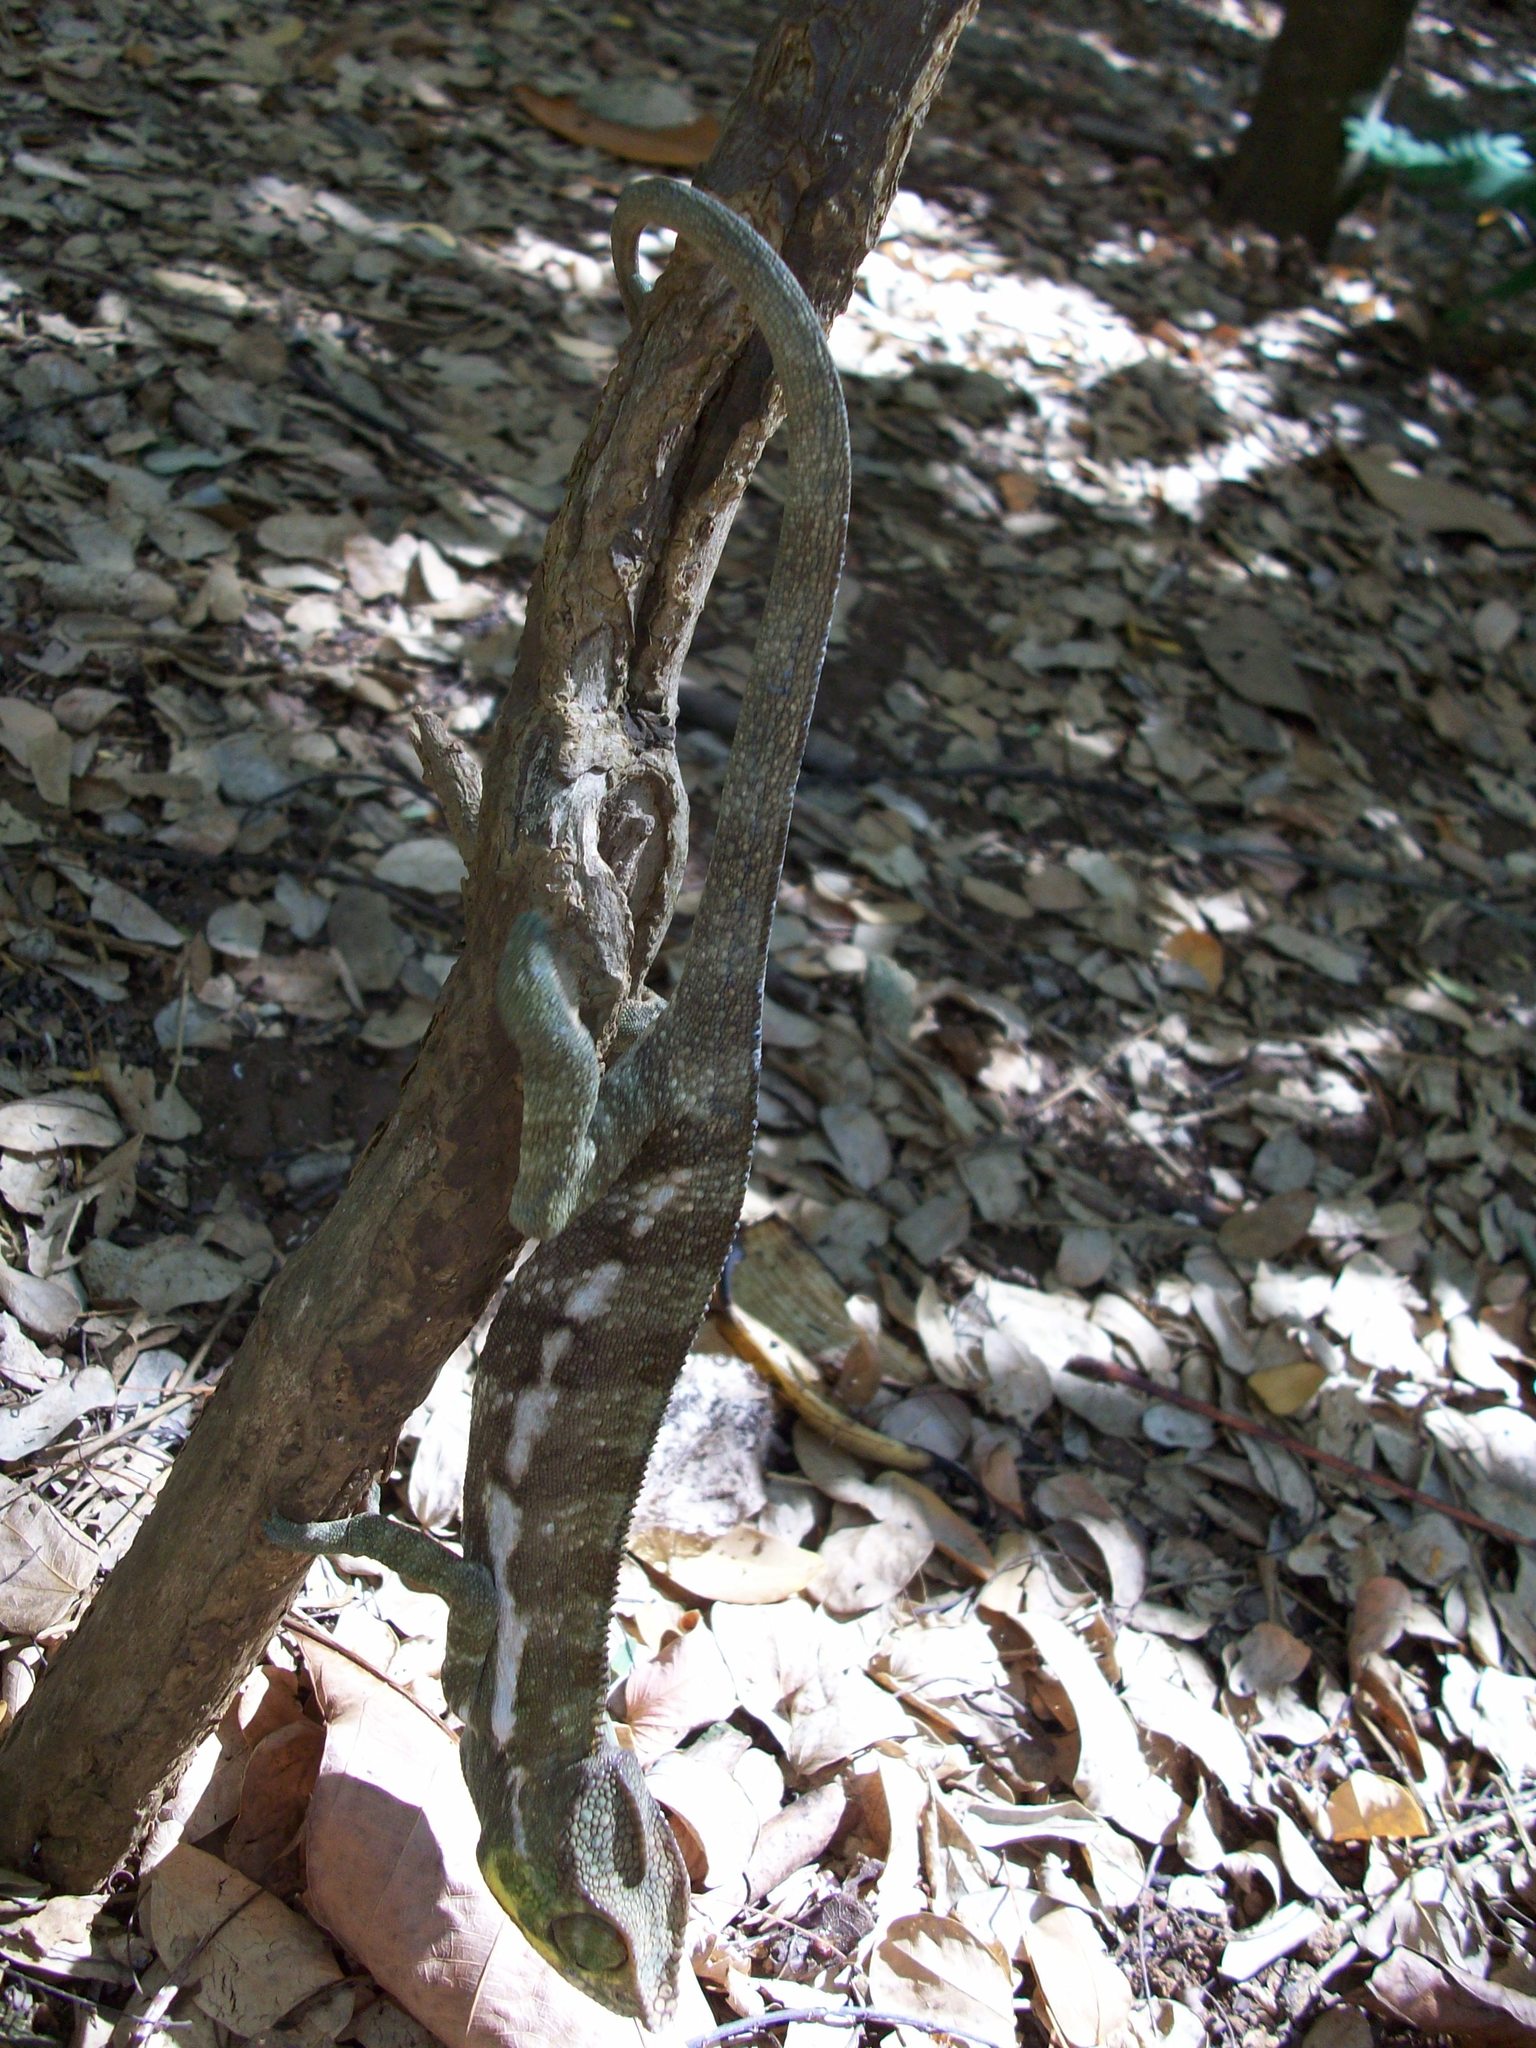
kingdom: Animalia
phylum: Chordata
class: Squamata
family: Chamaeleonidae
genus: Furcifer
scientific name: Furcifer pardalis
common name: Panther chameleon
